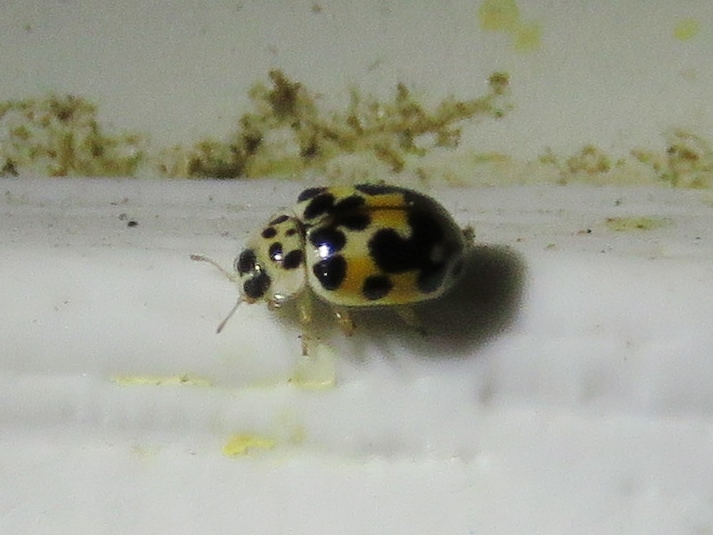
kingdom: Animalia
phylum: Arthropoda
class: Insecta
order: Coleoptera
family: Coccinellidae
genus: Psyllobora
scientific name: Psyllobora vigintimaculata
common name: Ladybird beetle
